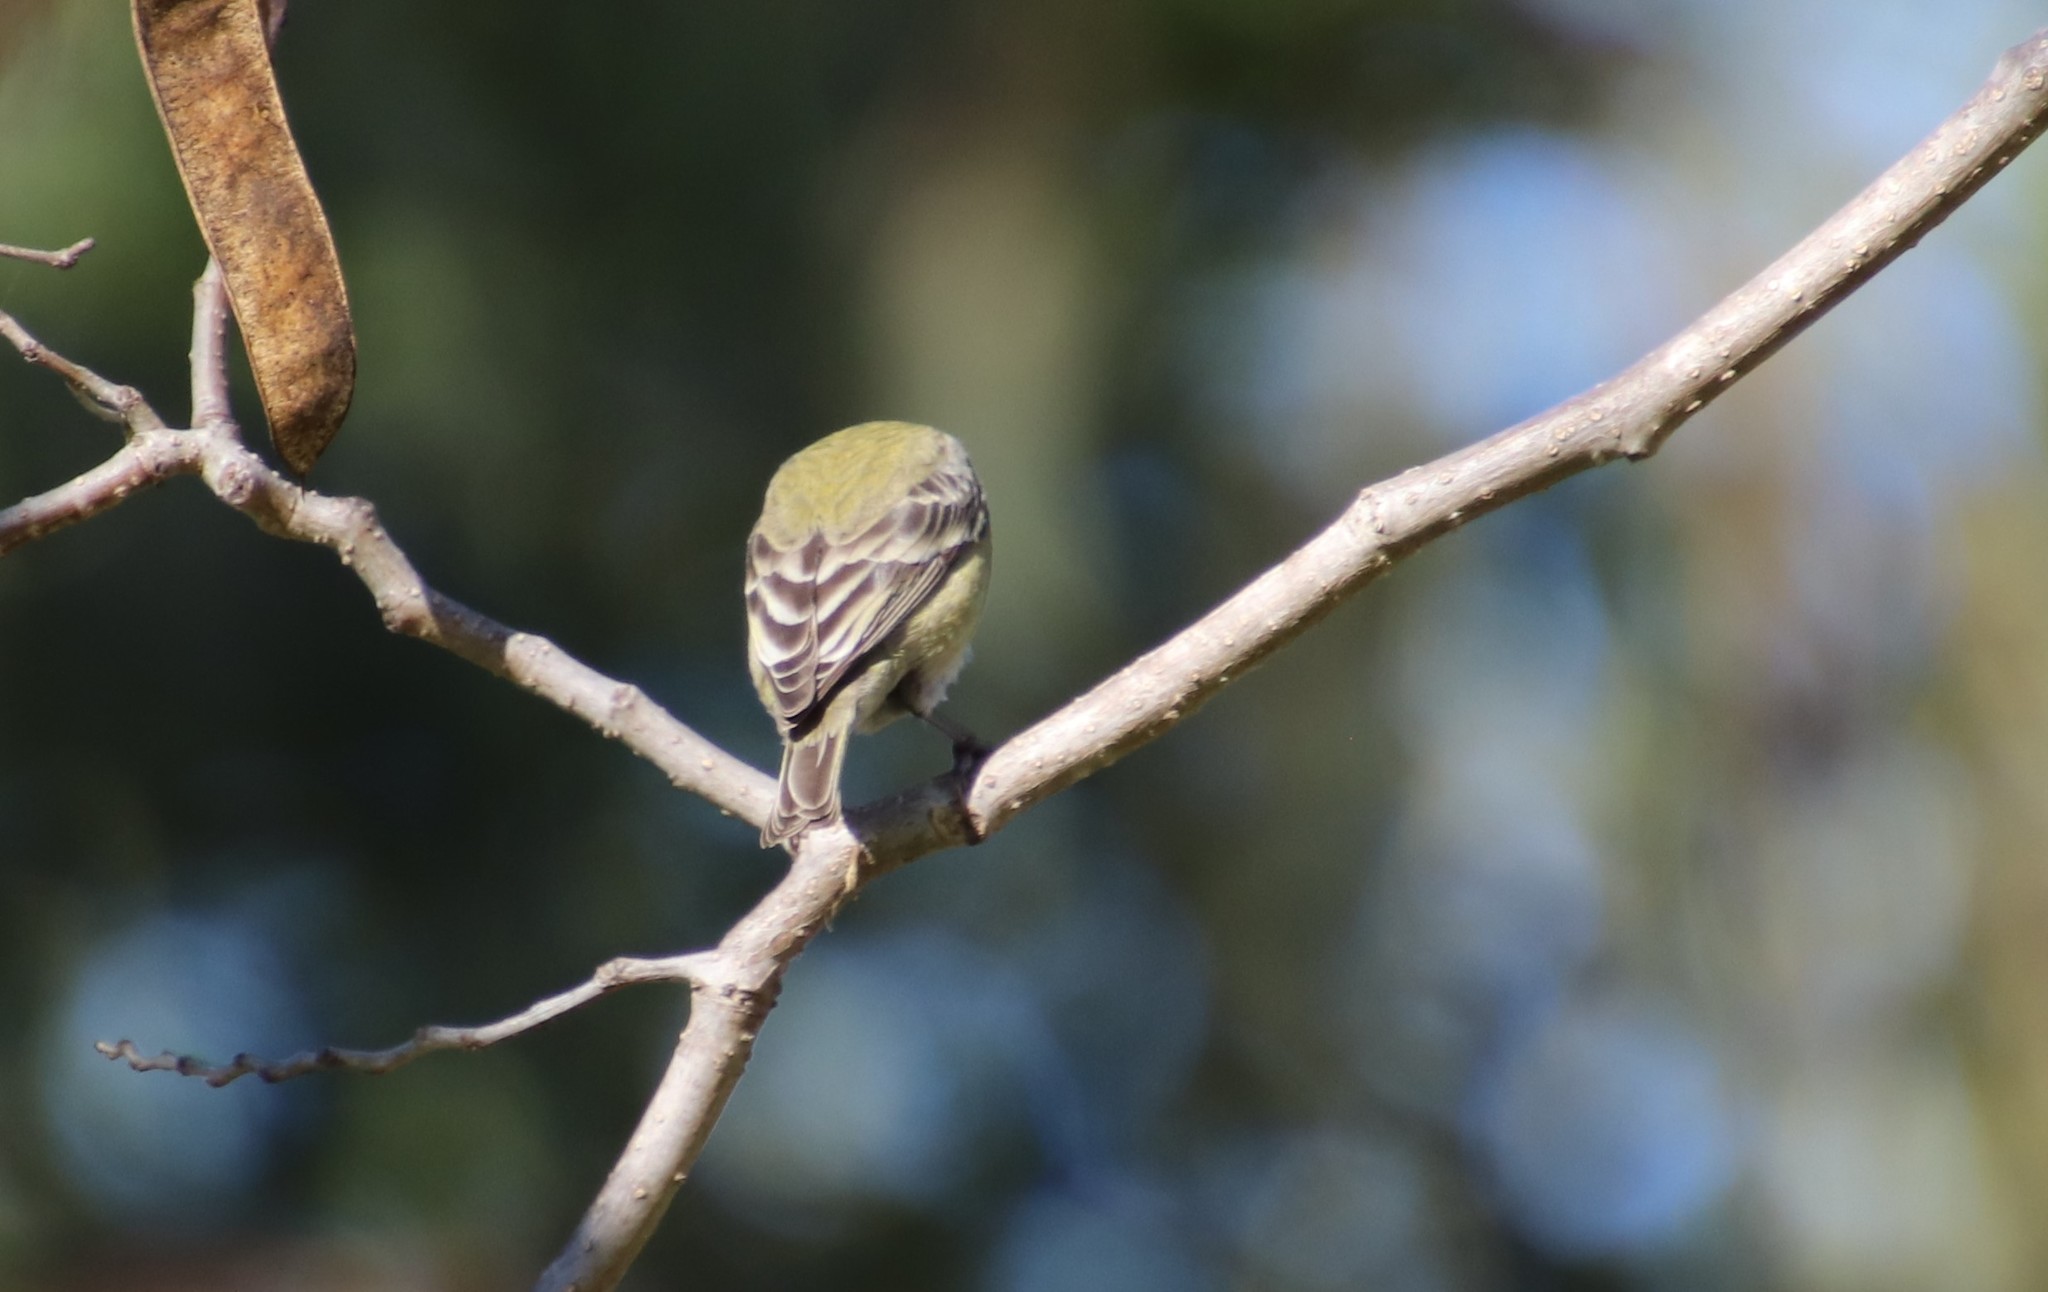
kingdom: Animalia
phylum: Chordata
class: Aves
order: Passeriformes
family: Fringillidae
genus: Spinus
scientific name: Spinus psaltria
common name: Lesser goldfinch
